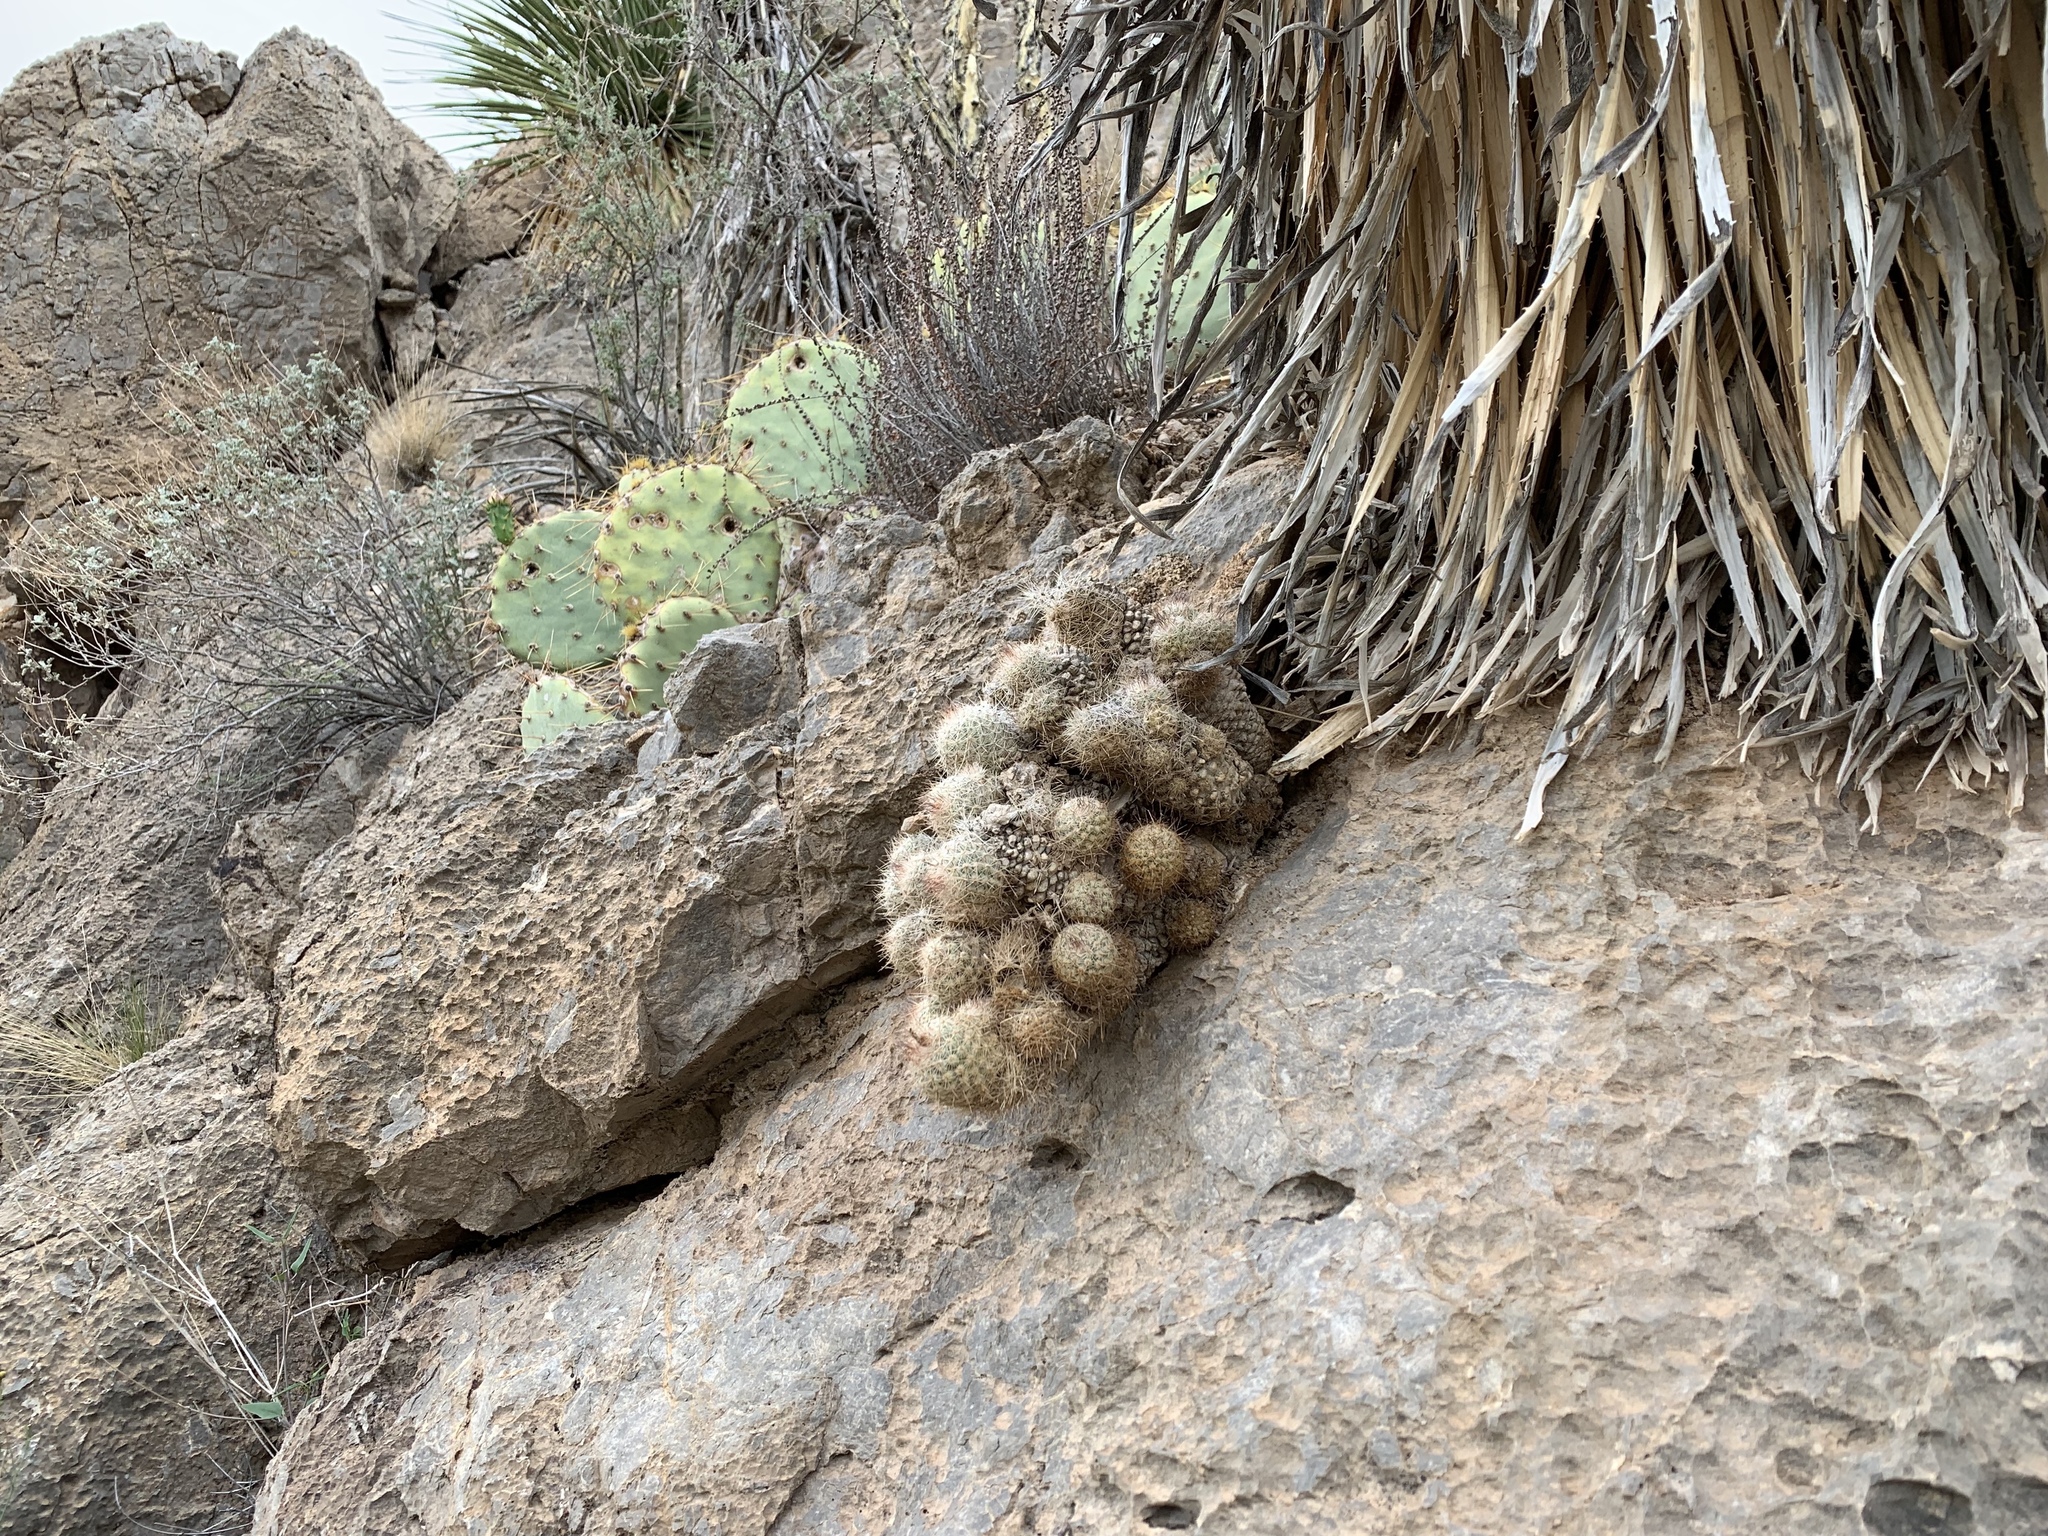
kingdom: Plantae
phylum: Tracheophyta
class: Magnoliopsida
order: Caryophyllales
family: Cactaceae
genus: Pelecyphora
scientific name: Pelecyphora tuberculosa
